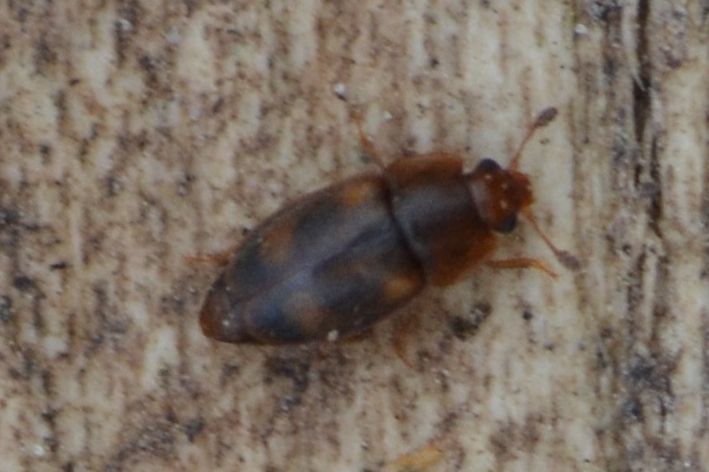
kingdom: Animalia
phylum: Arthropoda
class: Insecta
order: Coleoptera
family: Nitidulidae
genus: Epuraea
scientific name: Epuraea unicolor
